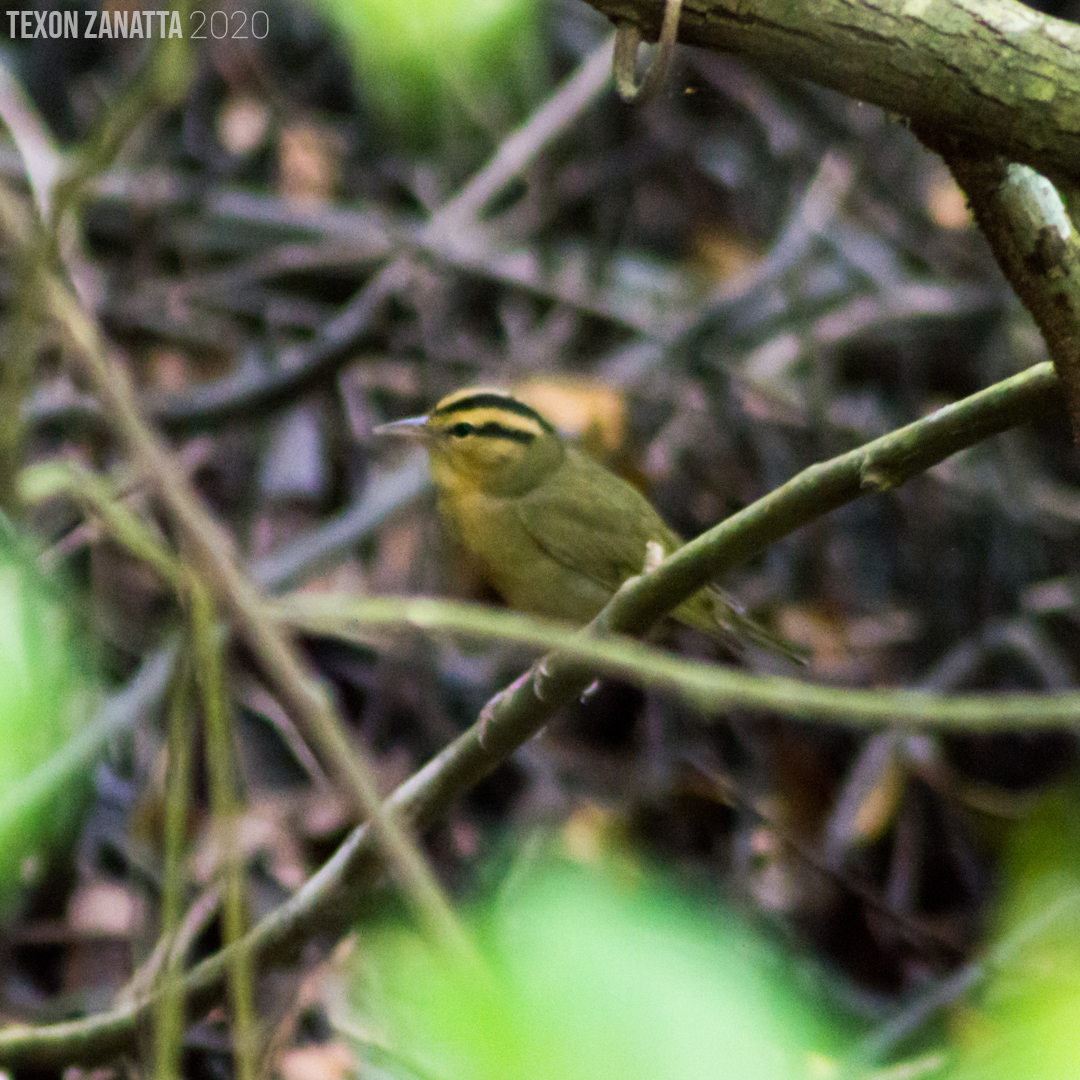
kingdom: Animalia
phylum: Chordata
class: Aves
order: Passeriformes
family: Parulidae
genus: Helmitheros
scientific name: Helmitheros vermivorum
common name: Worm-eating warbler
